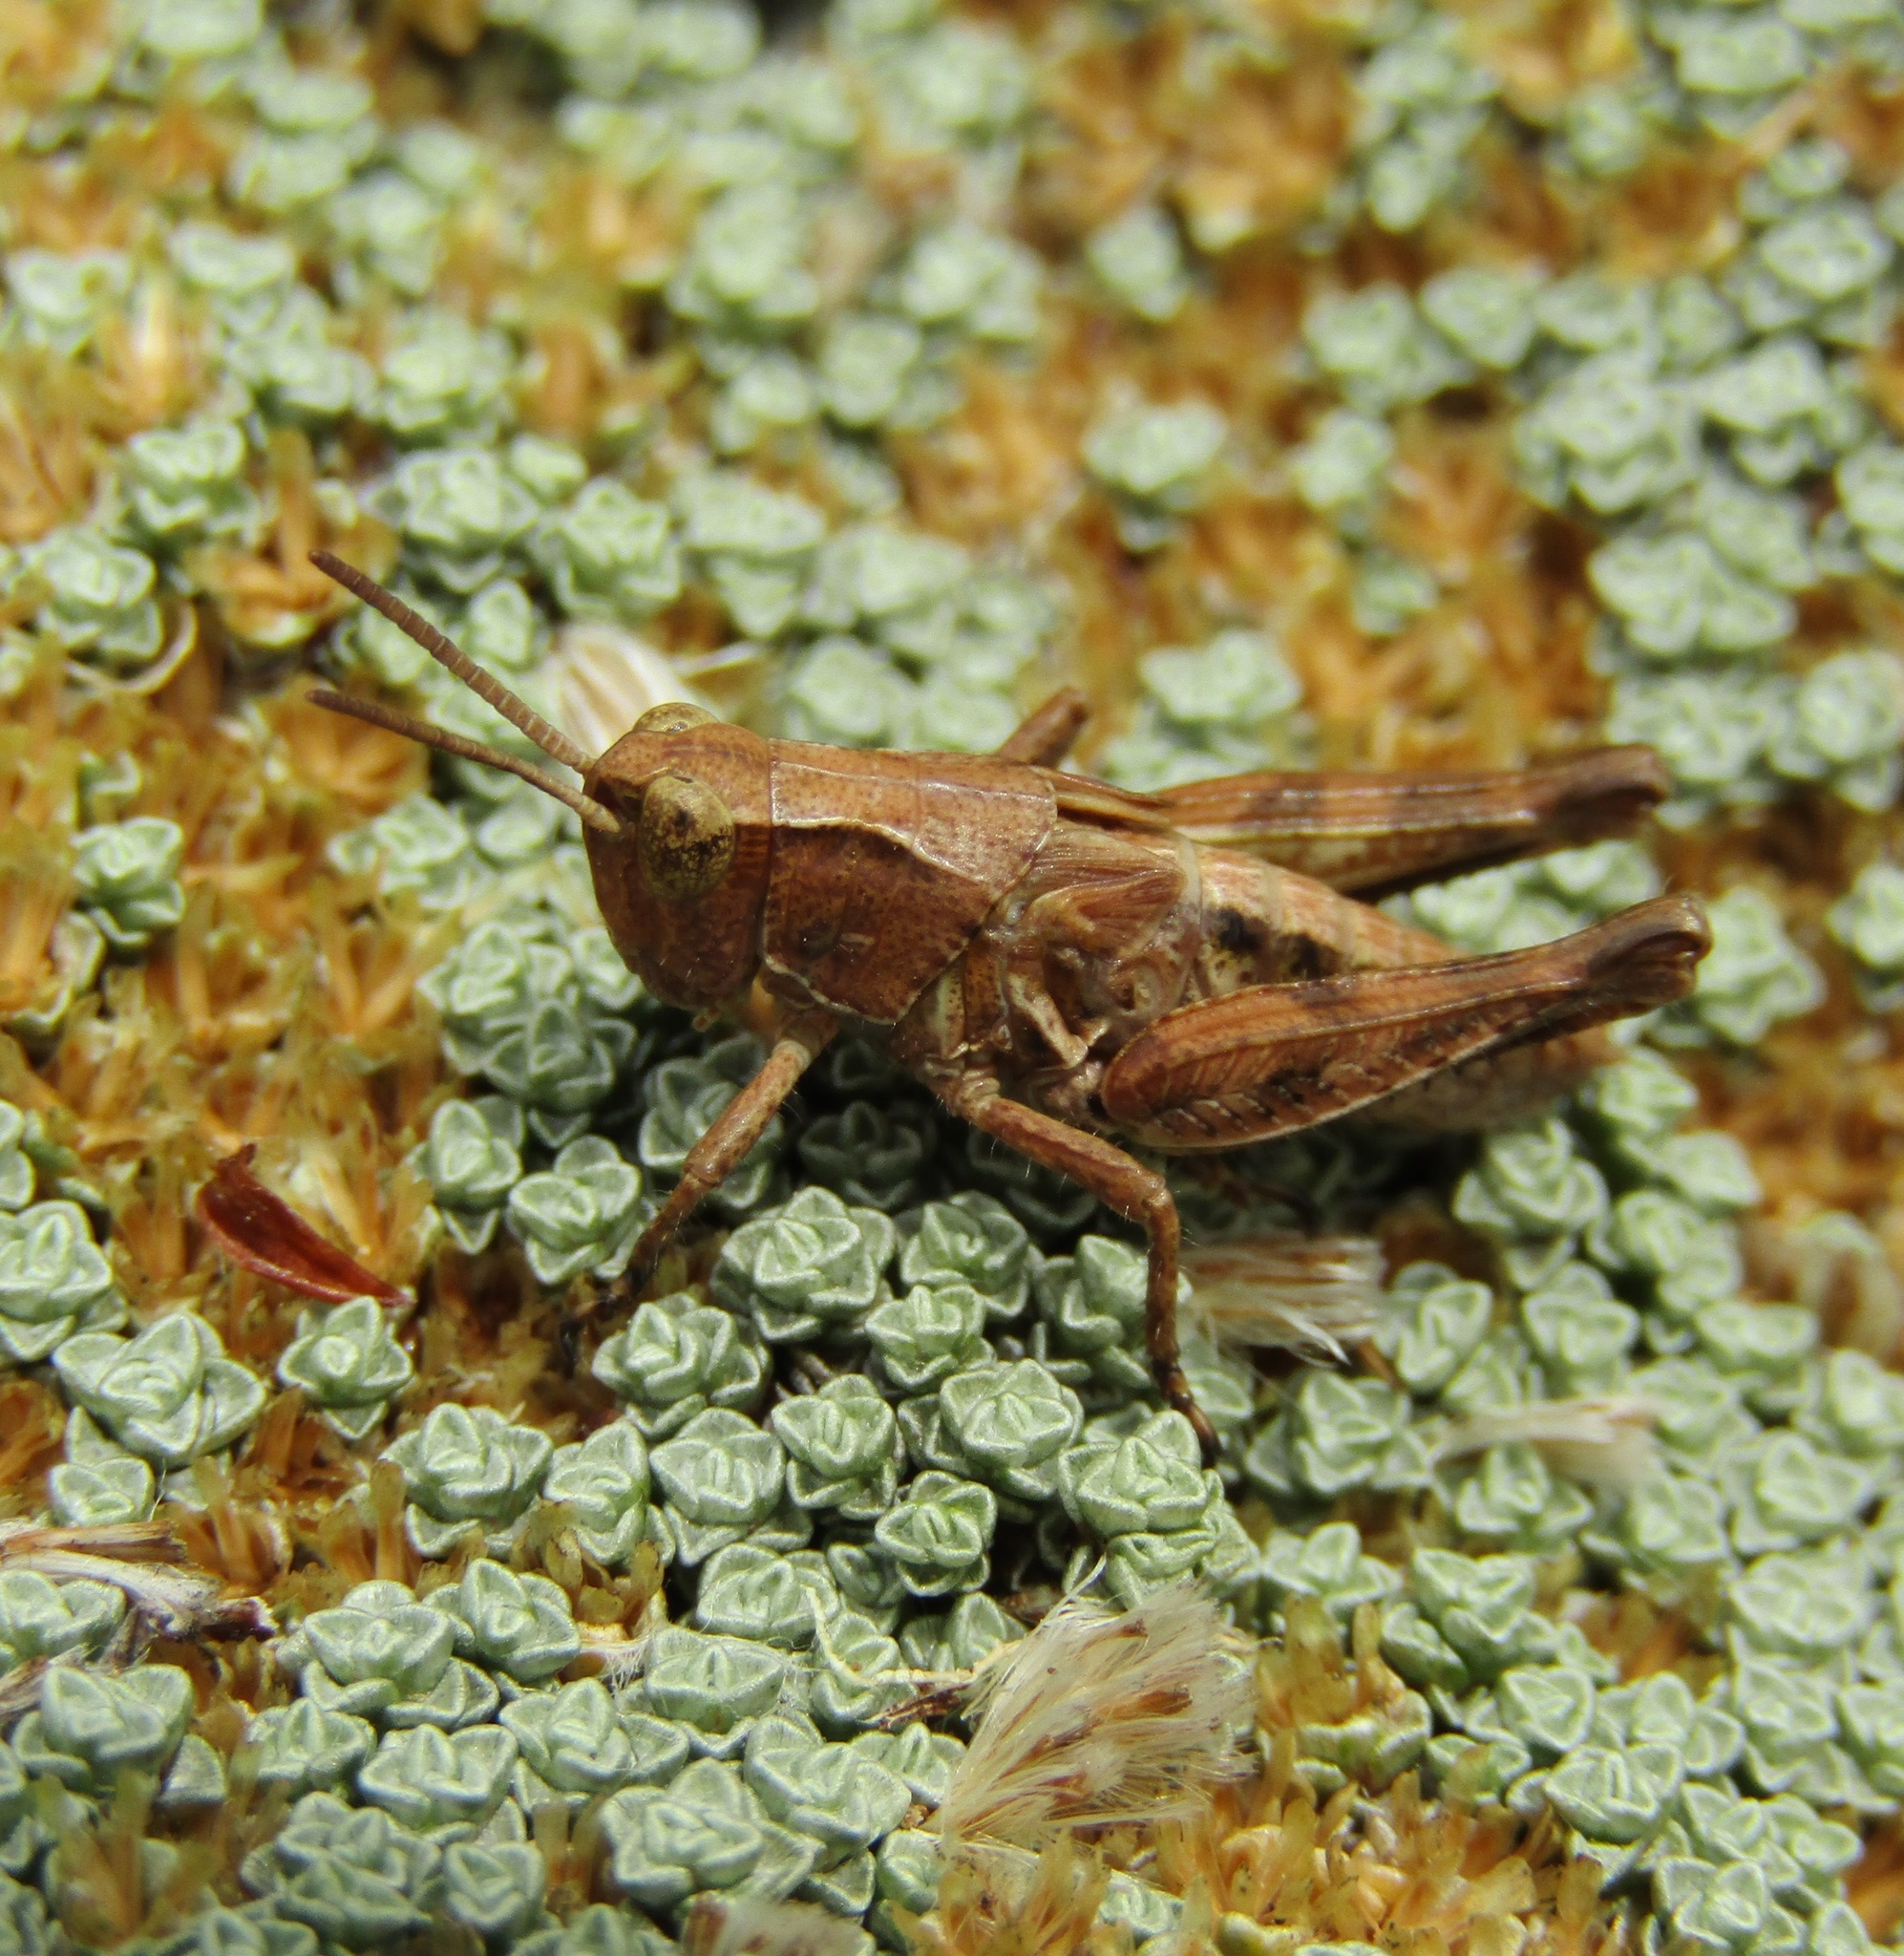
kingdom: Animalia
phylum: Arthropoda
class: Insecta
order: Orthoptera
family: Acrididae
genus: Phaulacridium
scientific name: Phaulacridium marginale
